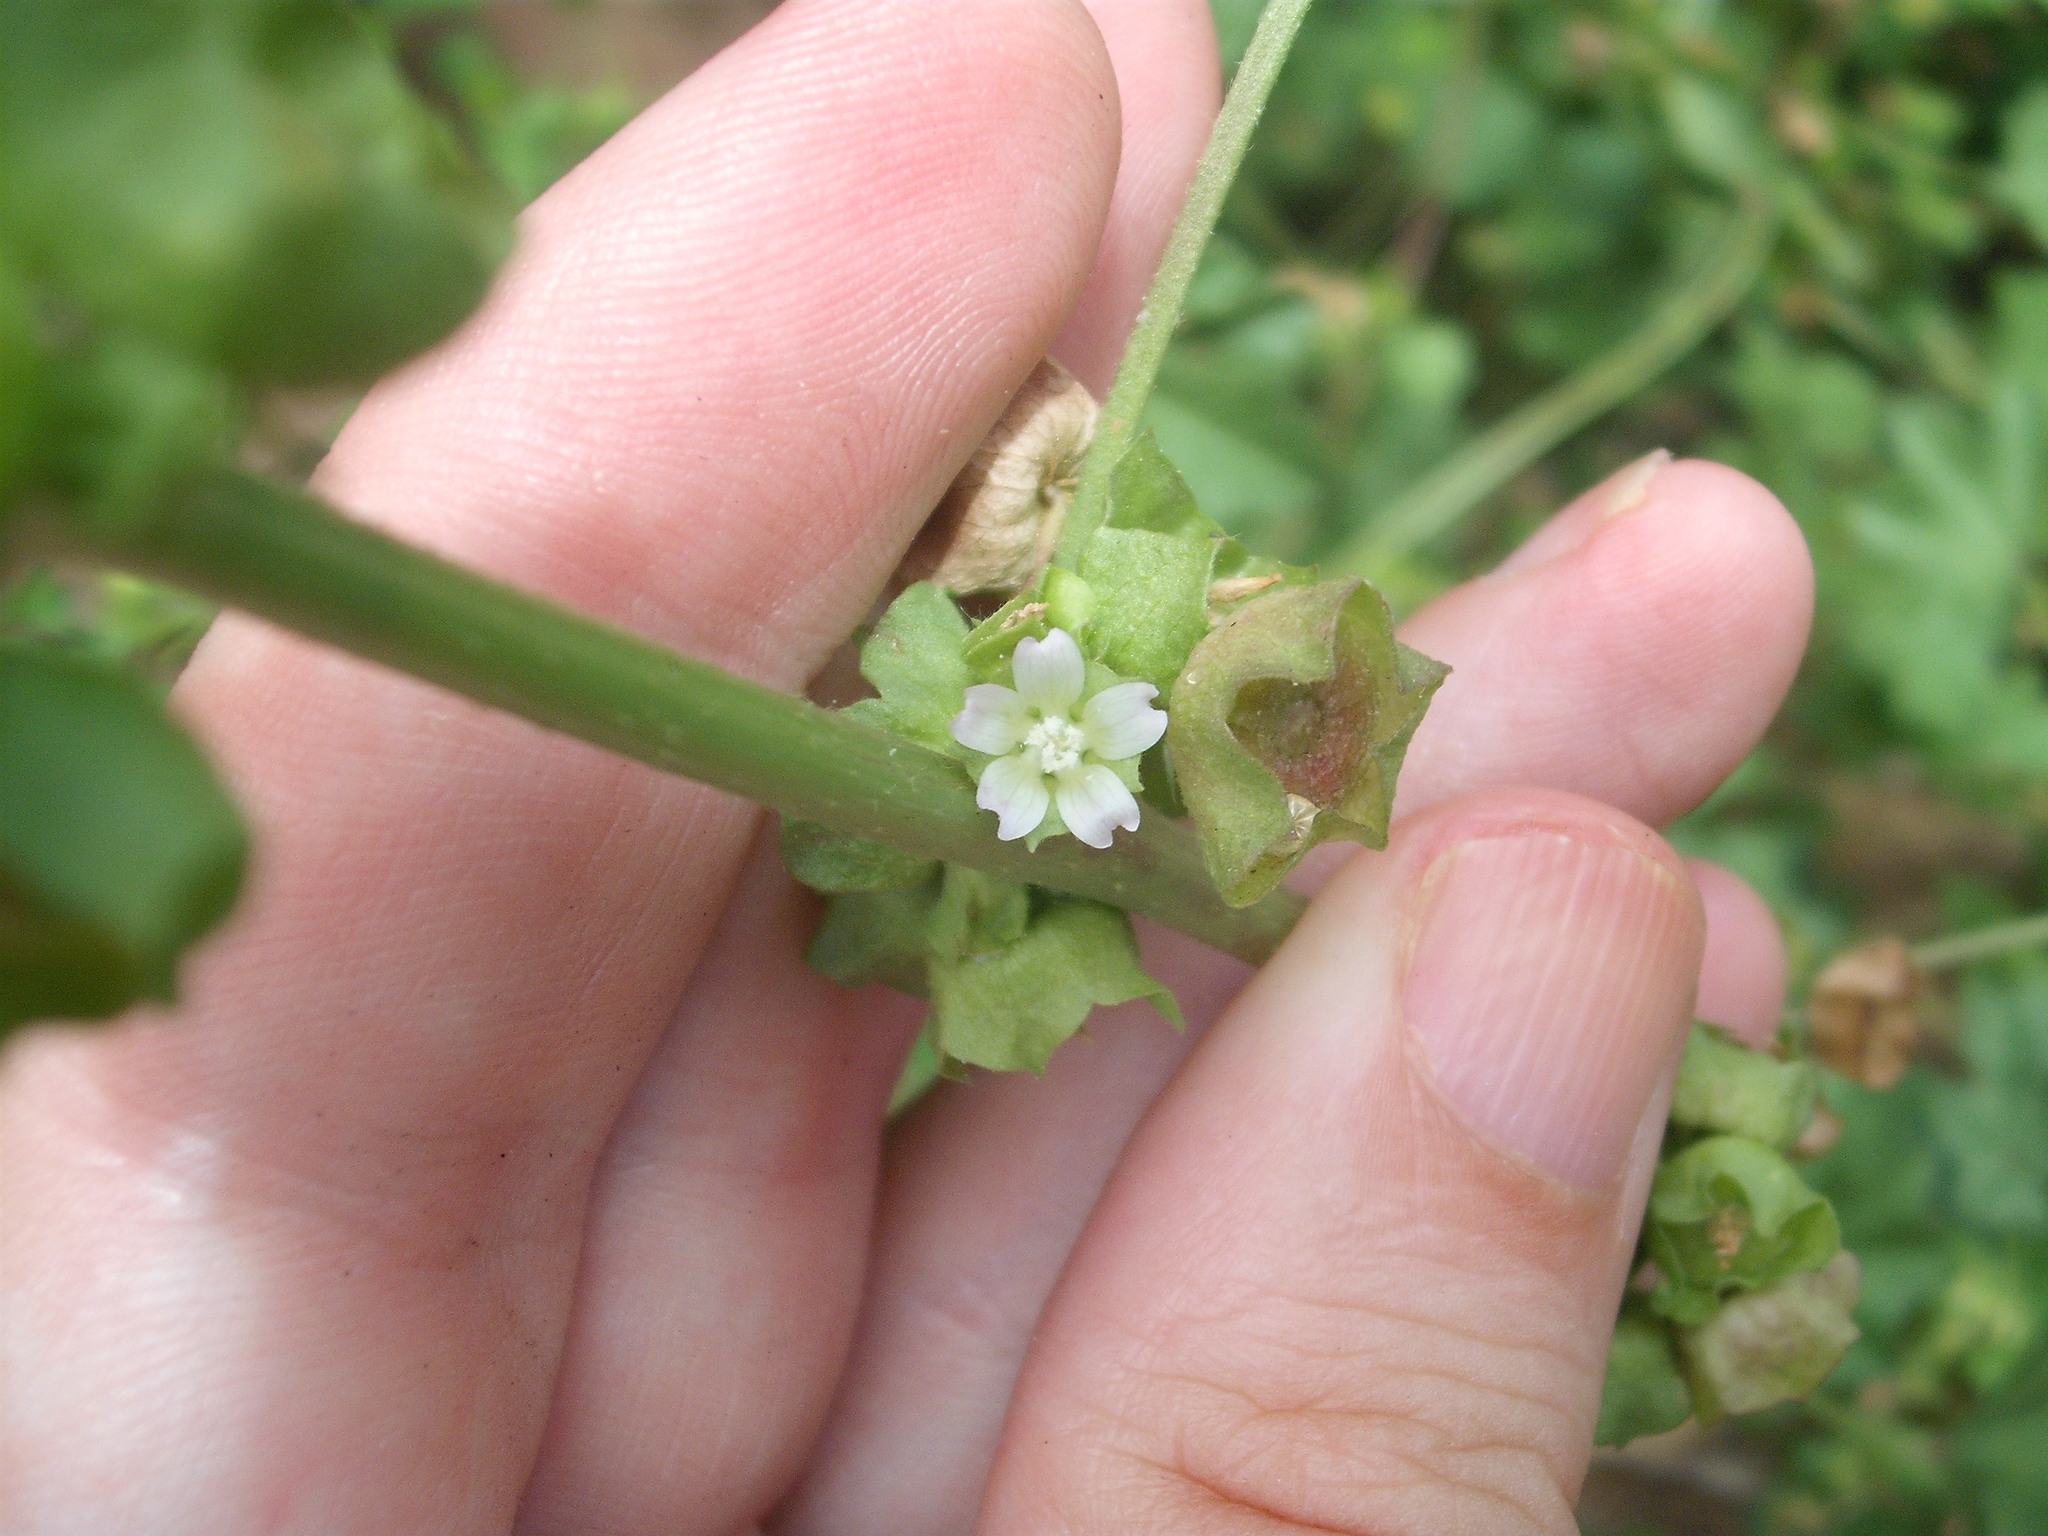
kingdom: Plantae
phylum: Tracheophyta
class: Magnoliopsida
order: Malvales
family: Malvaceae
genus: Malva
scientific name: Malva parviflora
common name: Least mallow
